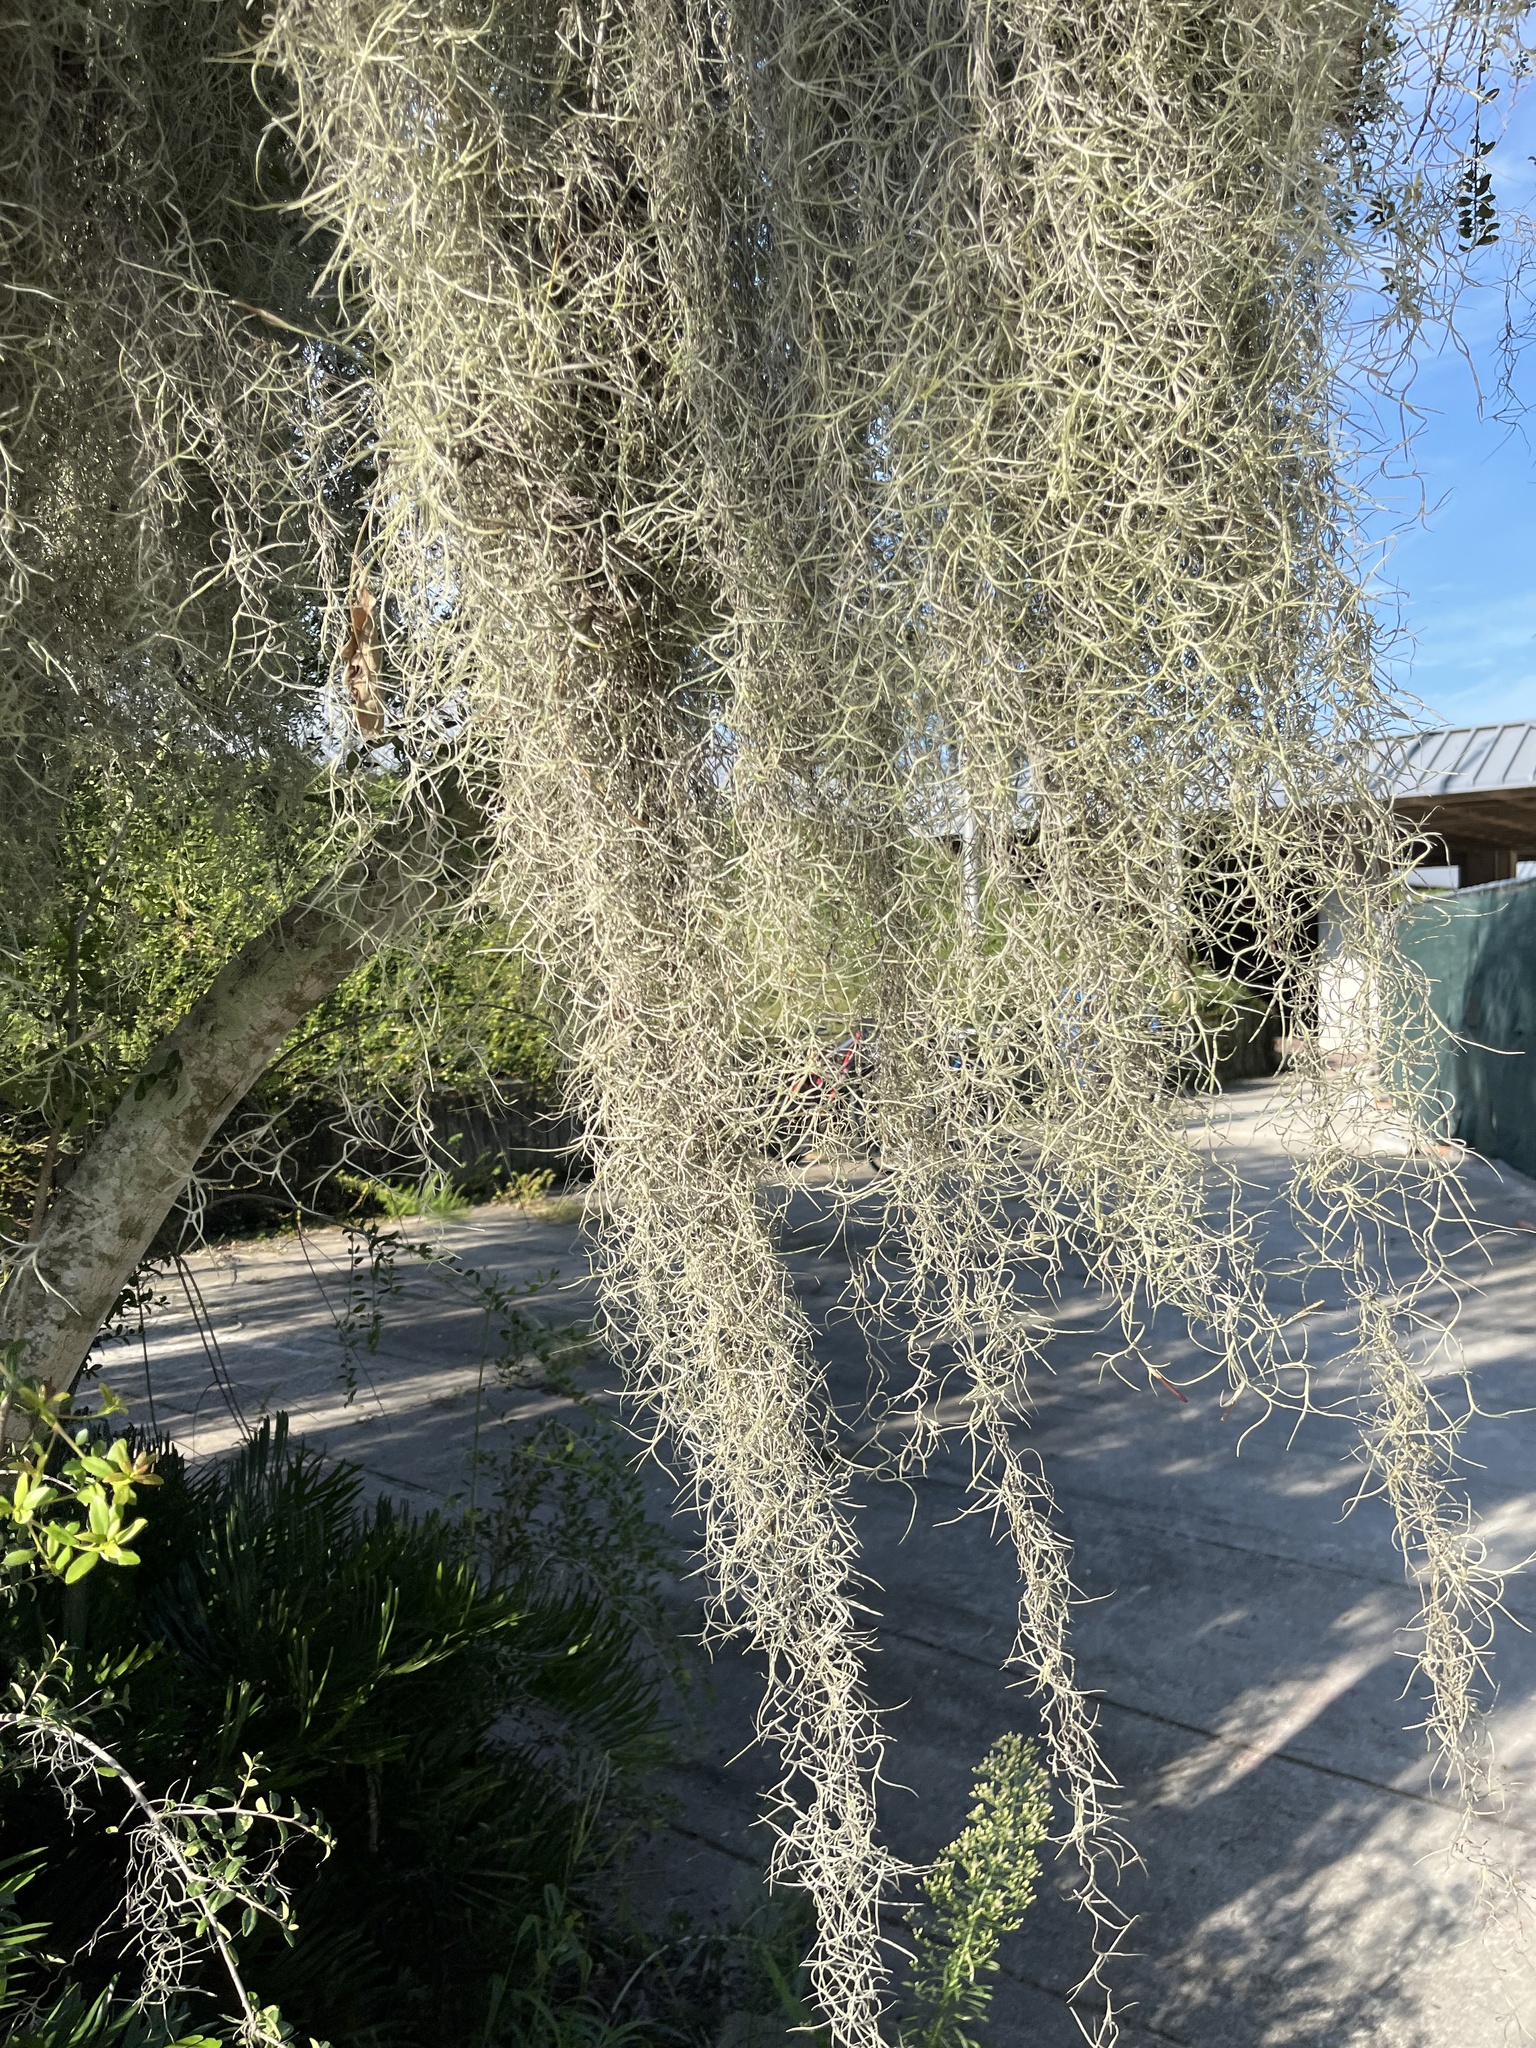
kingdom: Plantae
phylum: Tracheophyta
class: Liliopsida
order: Poales
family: Bromeliaceae
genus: Tillandsia
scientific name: Tillandsia usneoides
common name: Spanish moss
